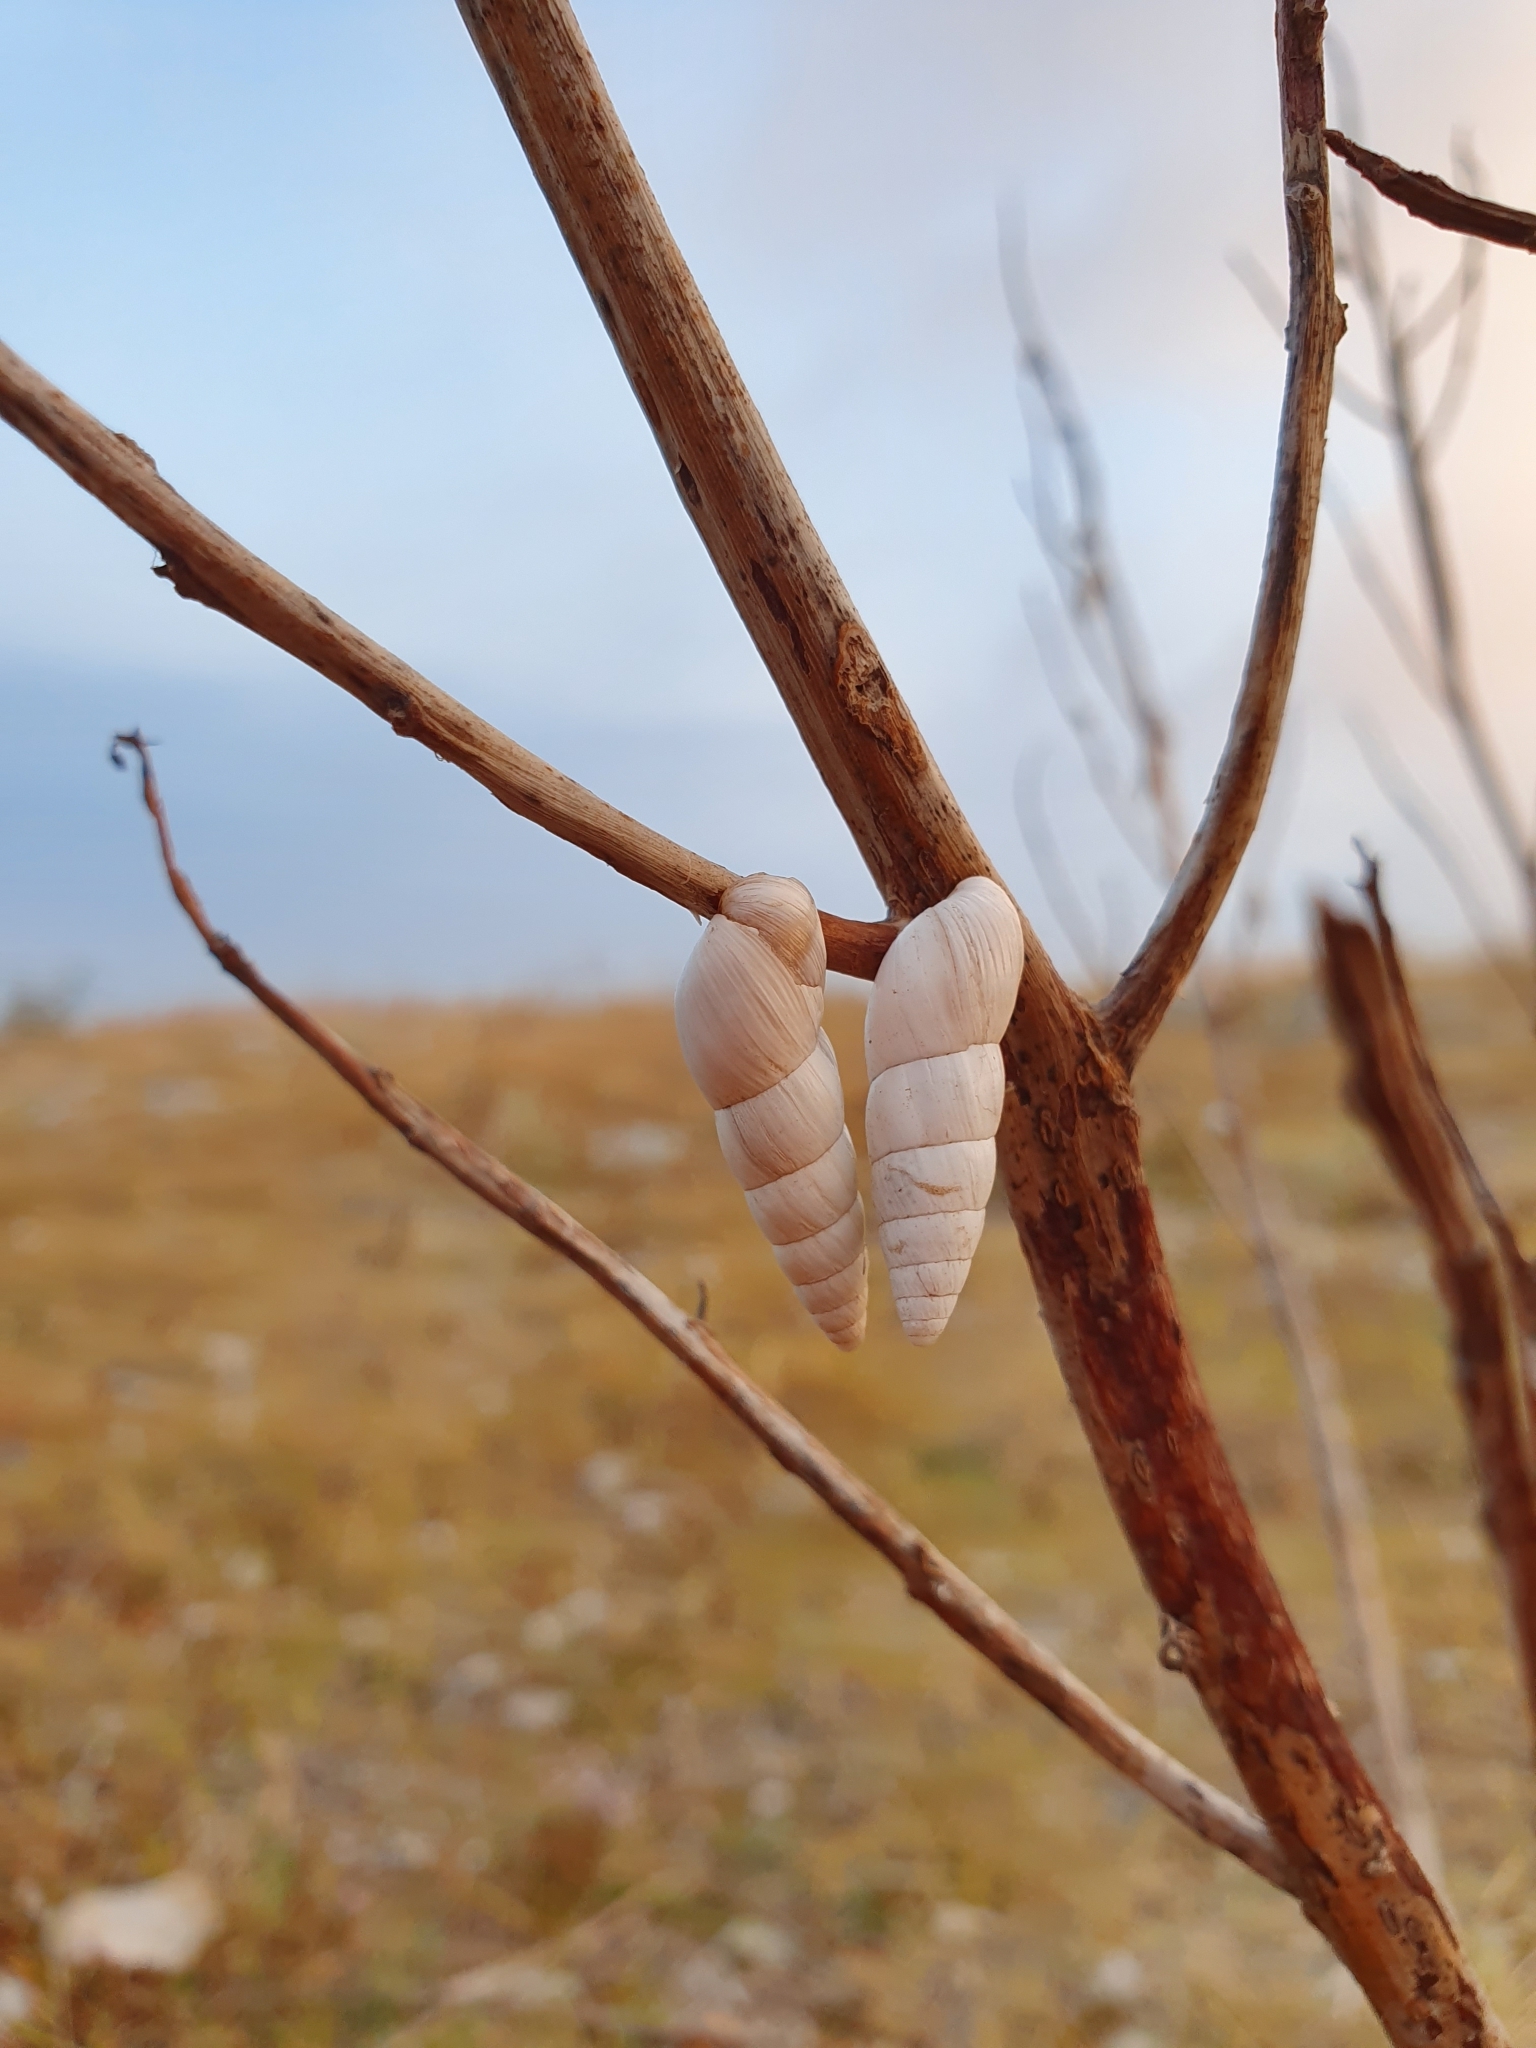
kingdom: Animalia
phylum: Mollusca
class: Gastropoda
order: Stylommatophora
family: Enidae
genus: Leucomastus
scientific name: Leucomastus eburneus
